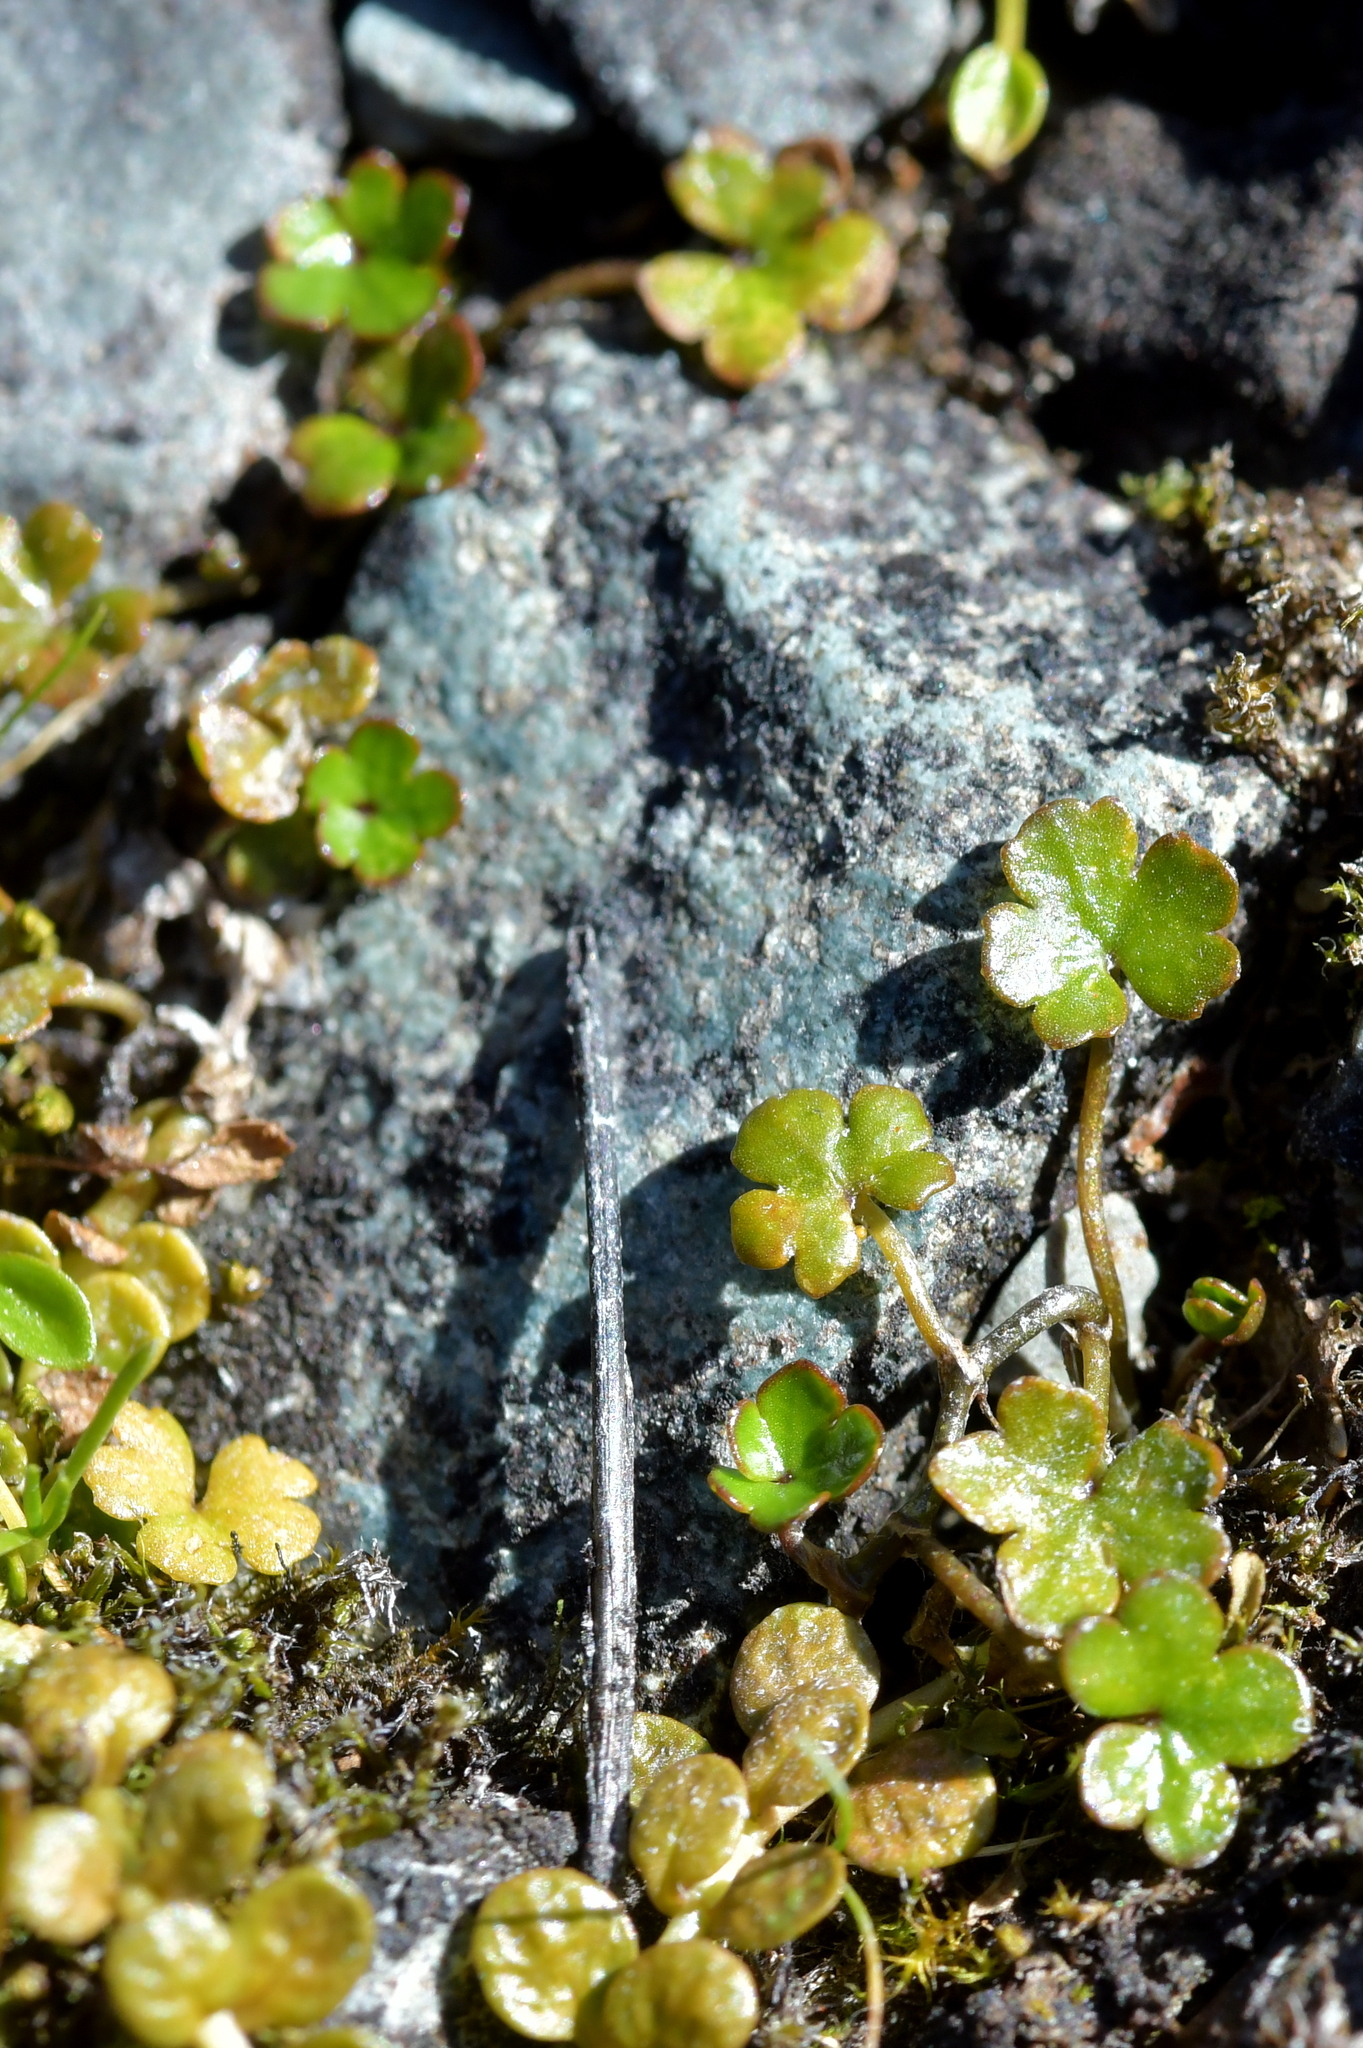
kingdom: Plantae
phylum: Tracheophyta
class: Magnoliopsida
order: Apiales
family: Araliaceae
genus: Hydrocotyle
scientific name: Hydrocotyle novae-zeelandiae
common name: New zealand pennywort
